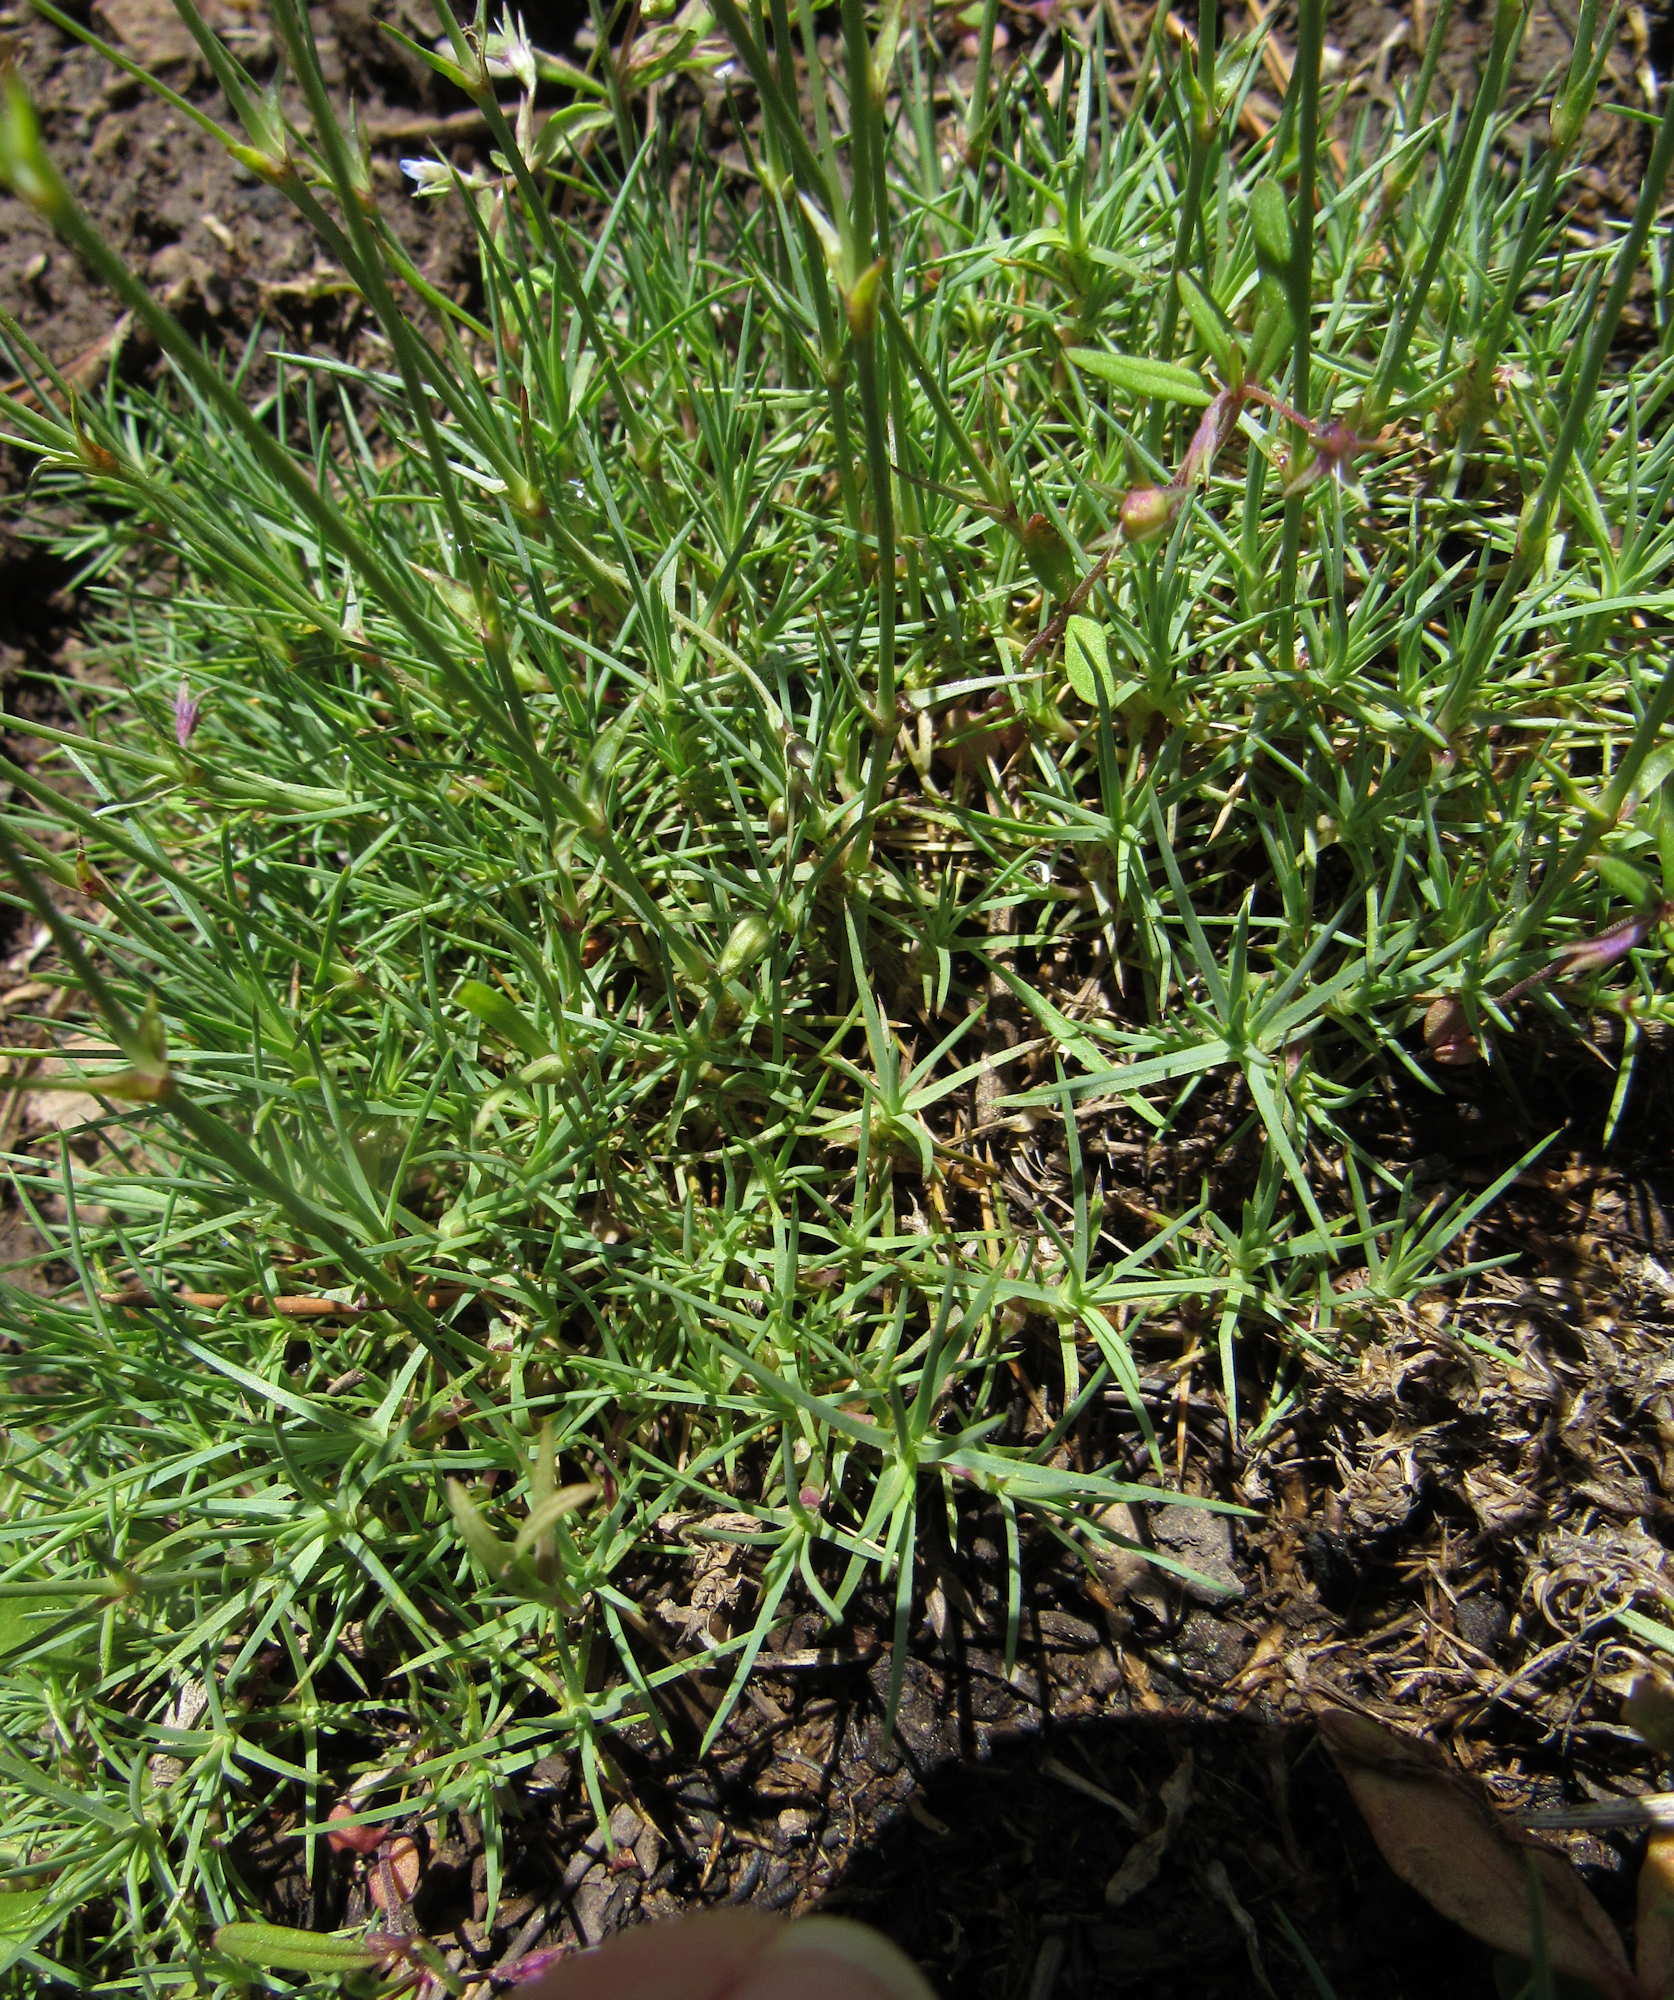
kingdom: Plantae
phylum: Tracheophyta
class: Magnoliopsida
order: Caryophyllales
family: Caryophyllaceae
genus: Eremogone
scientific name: Eremogone kingii
